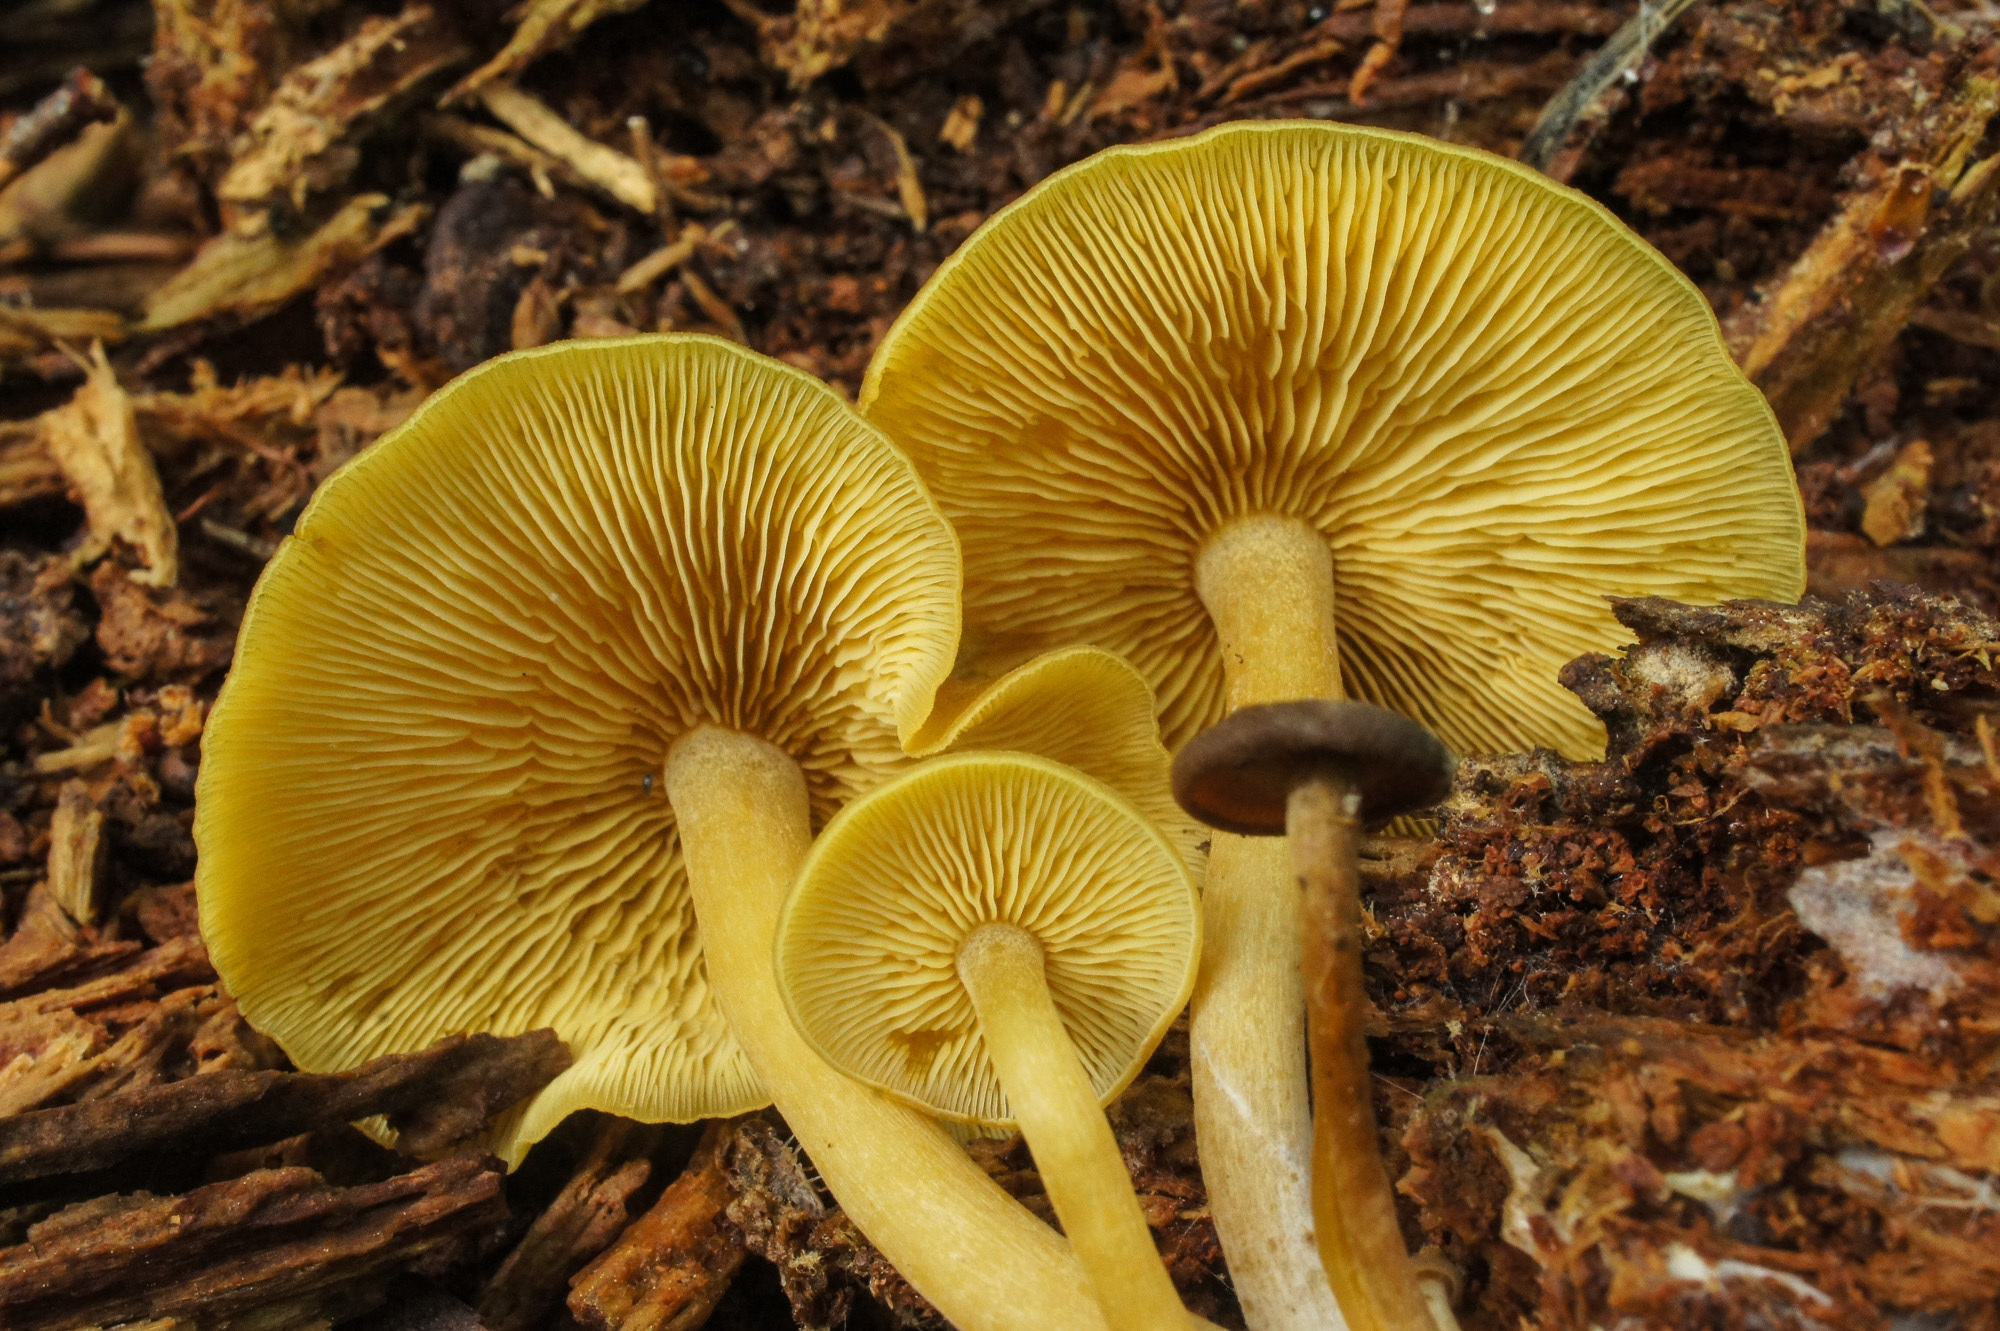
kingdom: Fungi
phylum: Basidiomycota
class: Agaricomycetes
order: Agaricales
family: Callistosporiaceae
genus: Callistosporium
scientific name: Callistosporium luteo-olivaceum
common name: Olive lute
